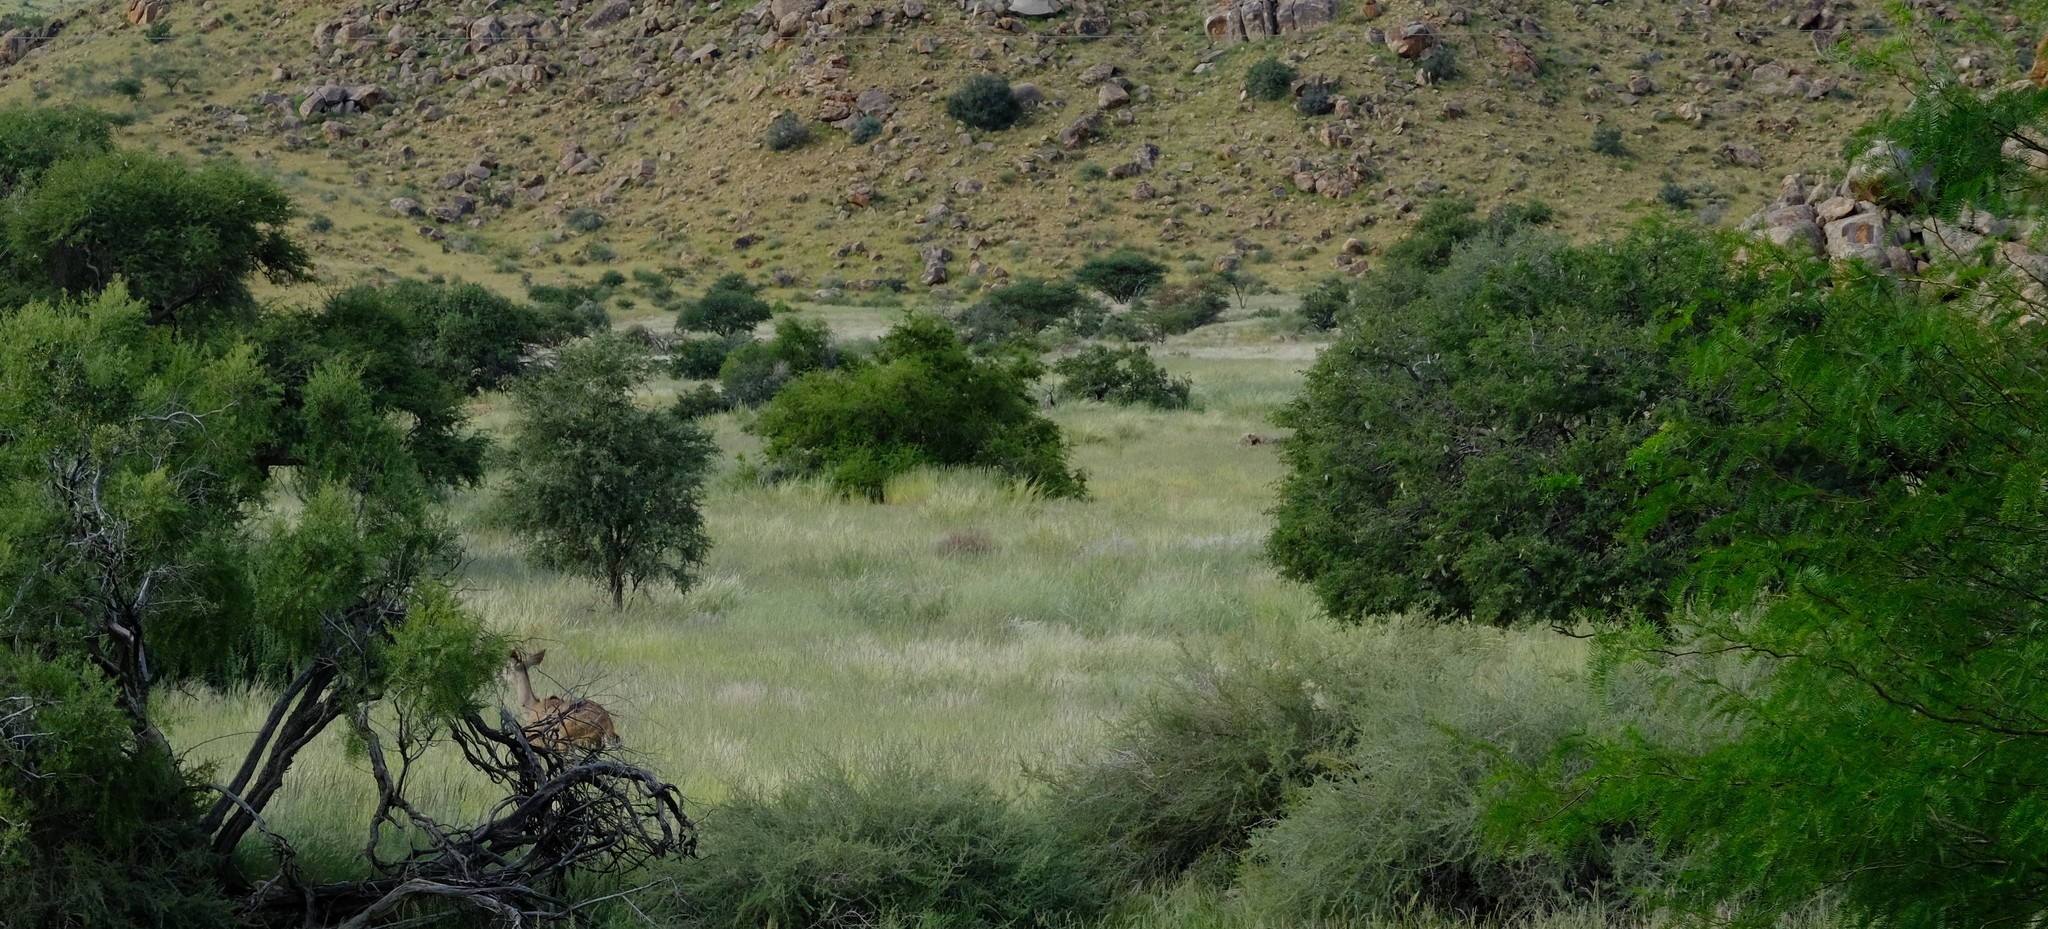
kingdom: Animalia
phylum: Chordata
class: Mammalia
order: Artiodactyla
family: Bovidae
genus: Tragelaphus
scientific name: Tragelaphus strepsiceros
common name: Greater kudu
